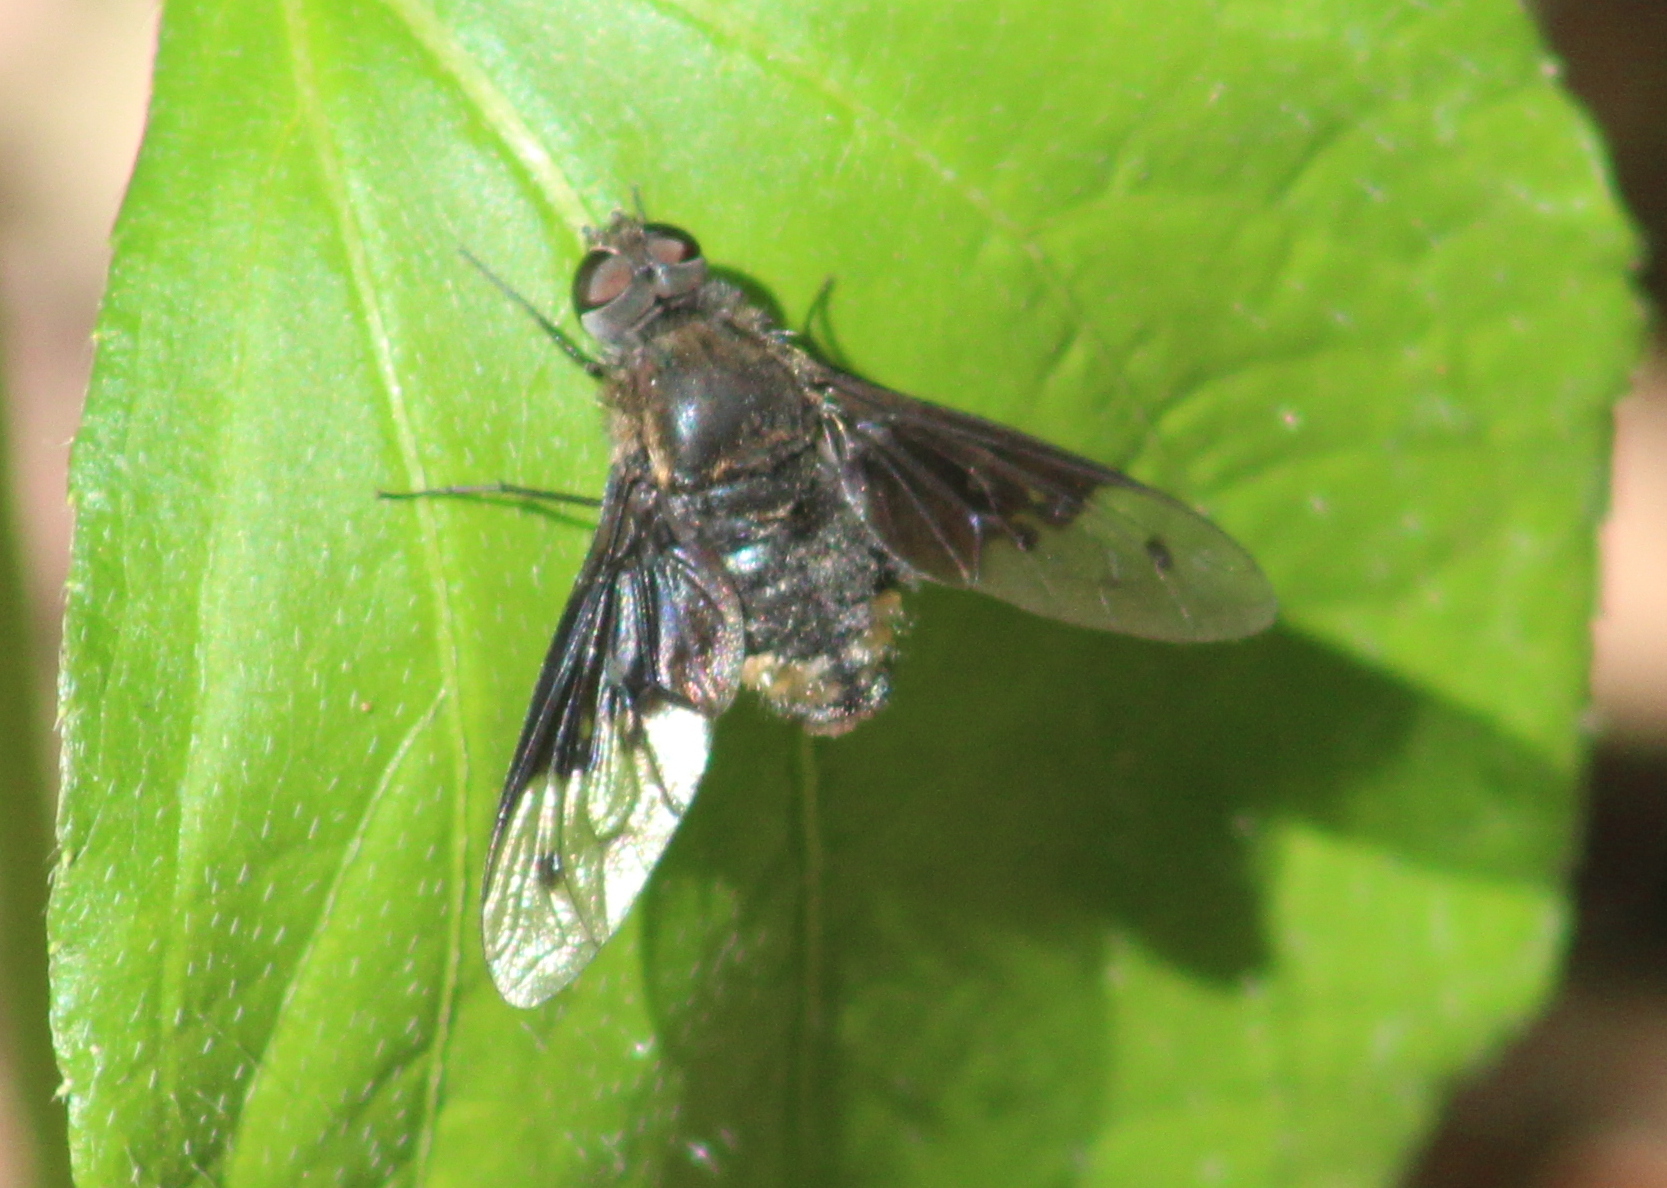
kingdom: Animalia
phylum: Arthropoda
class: Insecta
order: Diptera
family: Bombyliidae
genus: Anthrax
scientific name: Anthrax semiscitus
